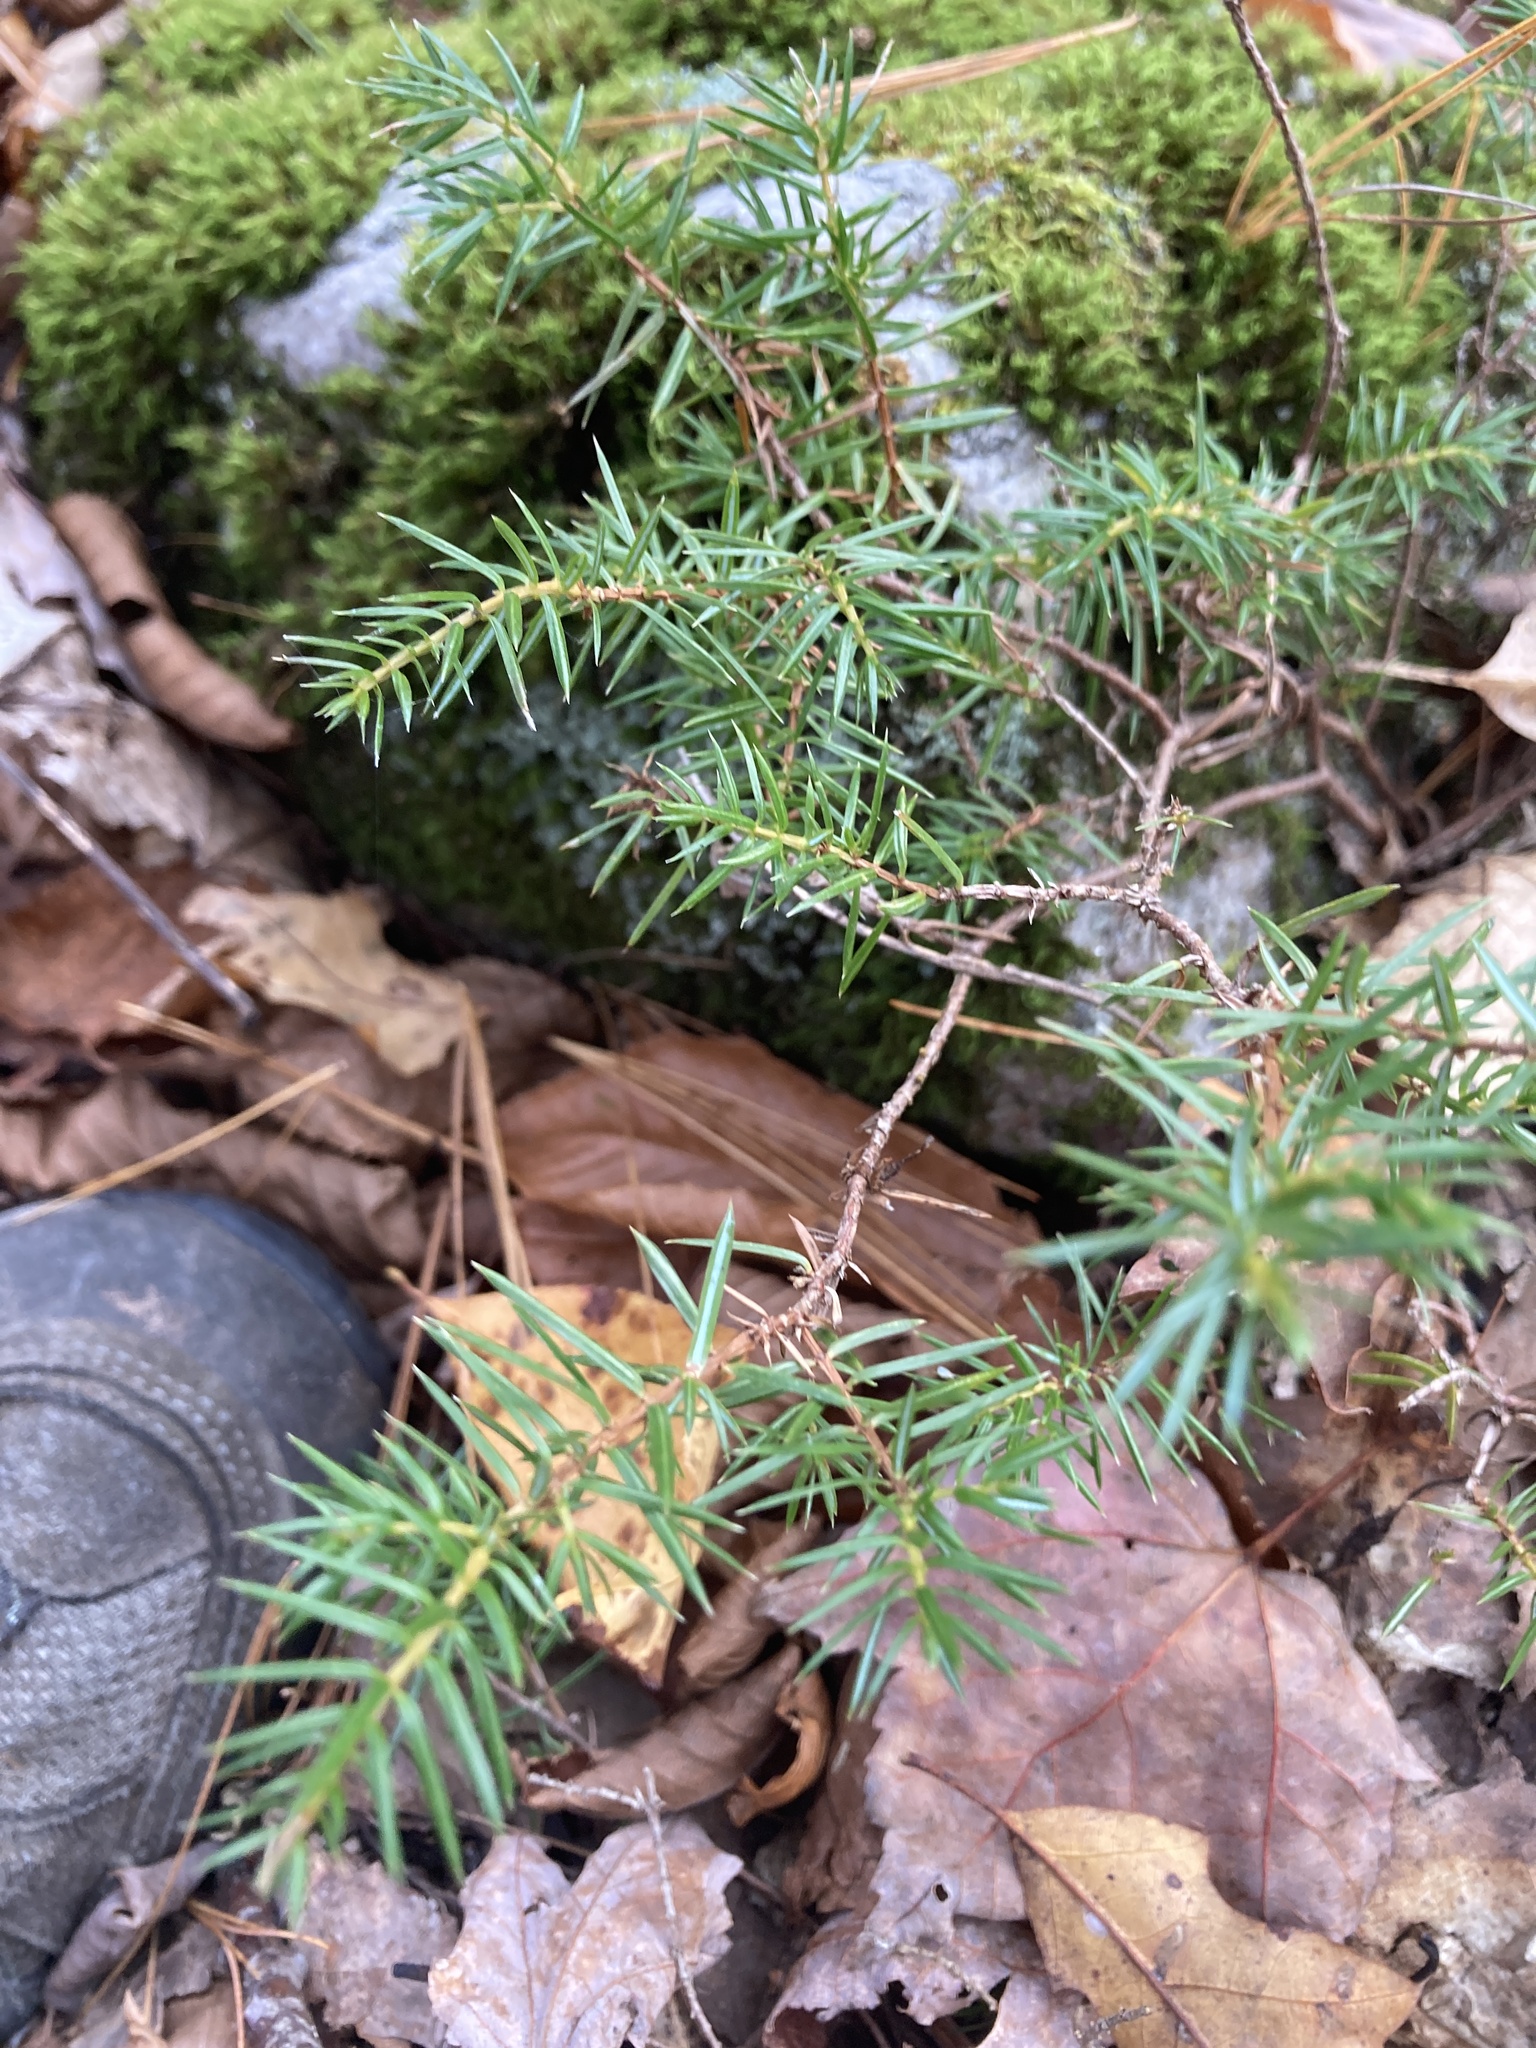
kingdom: Plantae
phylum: Tracheophyta
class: Pinopsida
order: Pinales
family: Cupressaceae
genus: Juniperus
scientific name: Juniperus communis
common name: Common juniper
